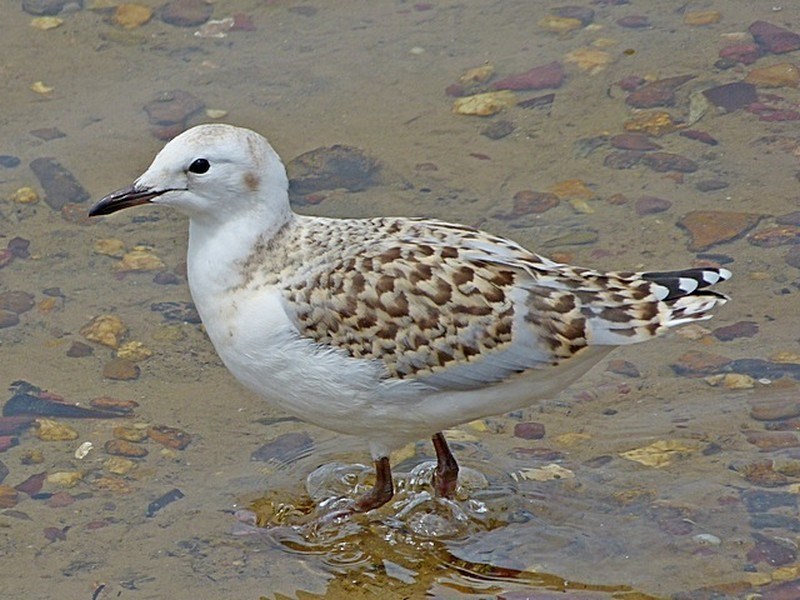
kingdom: Animalia
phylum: Chordata
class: Aves
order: Charadriiformes
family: Laridae
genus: Chroicocephalus
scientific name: Chroicocephalus novaehollandiae
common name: Silver gull
